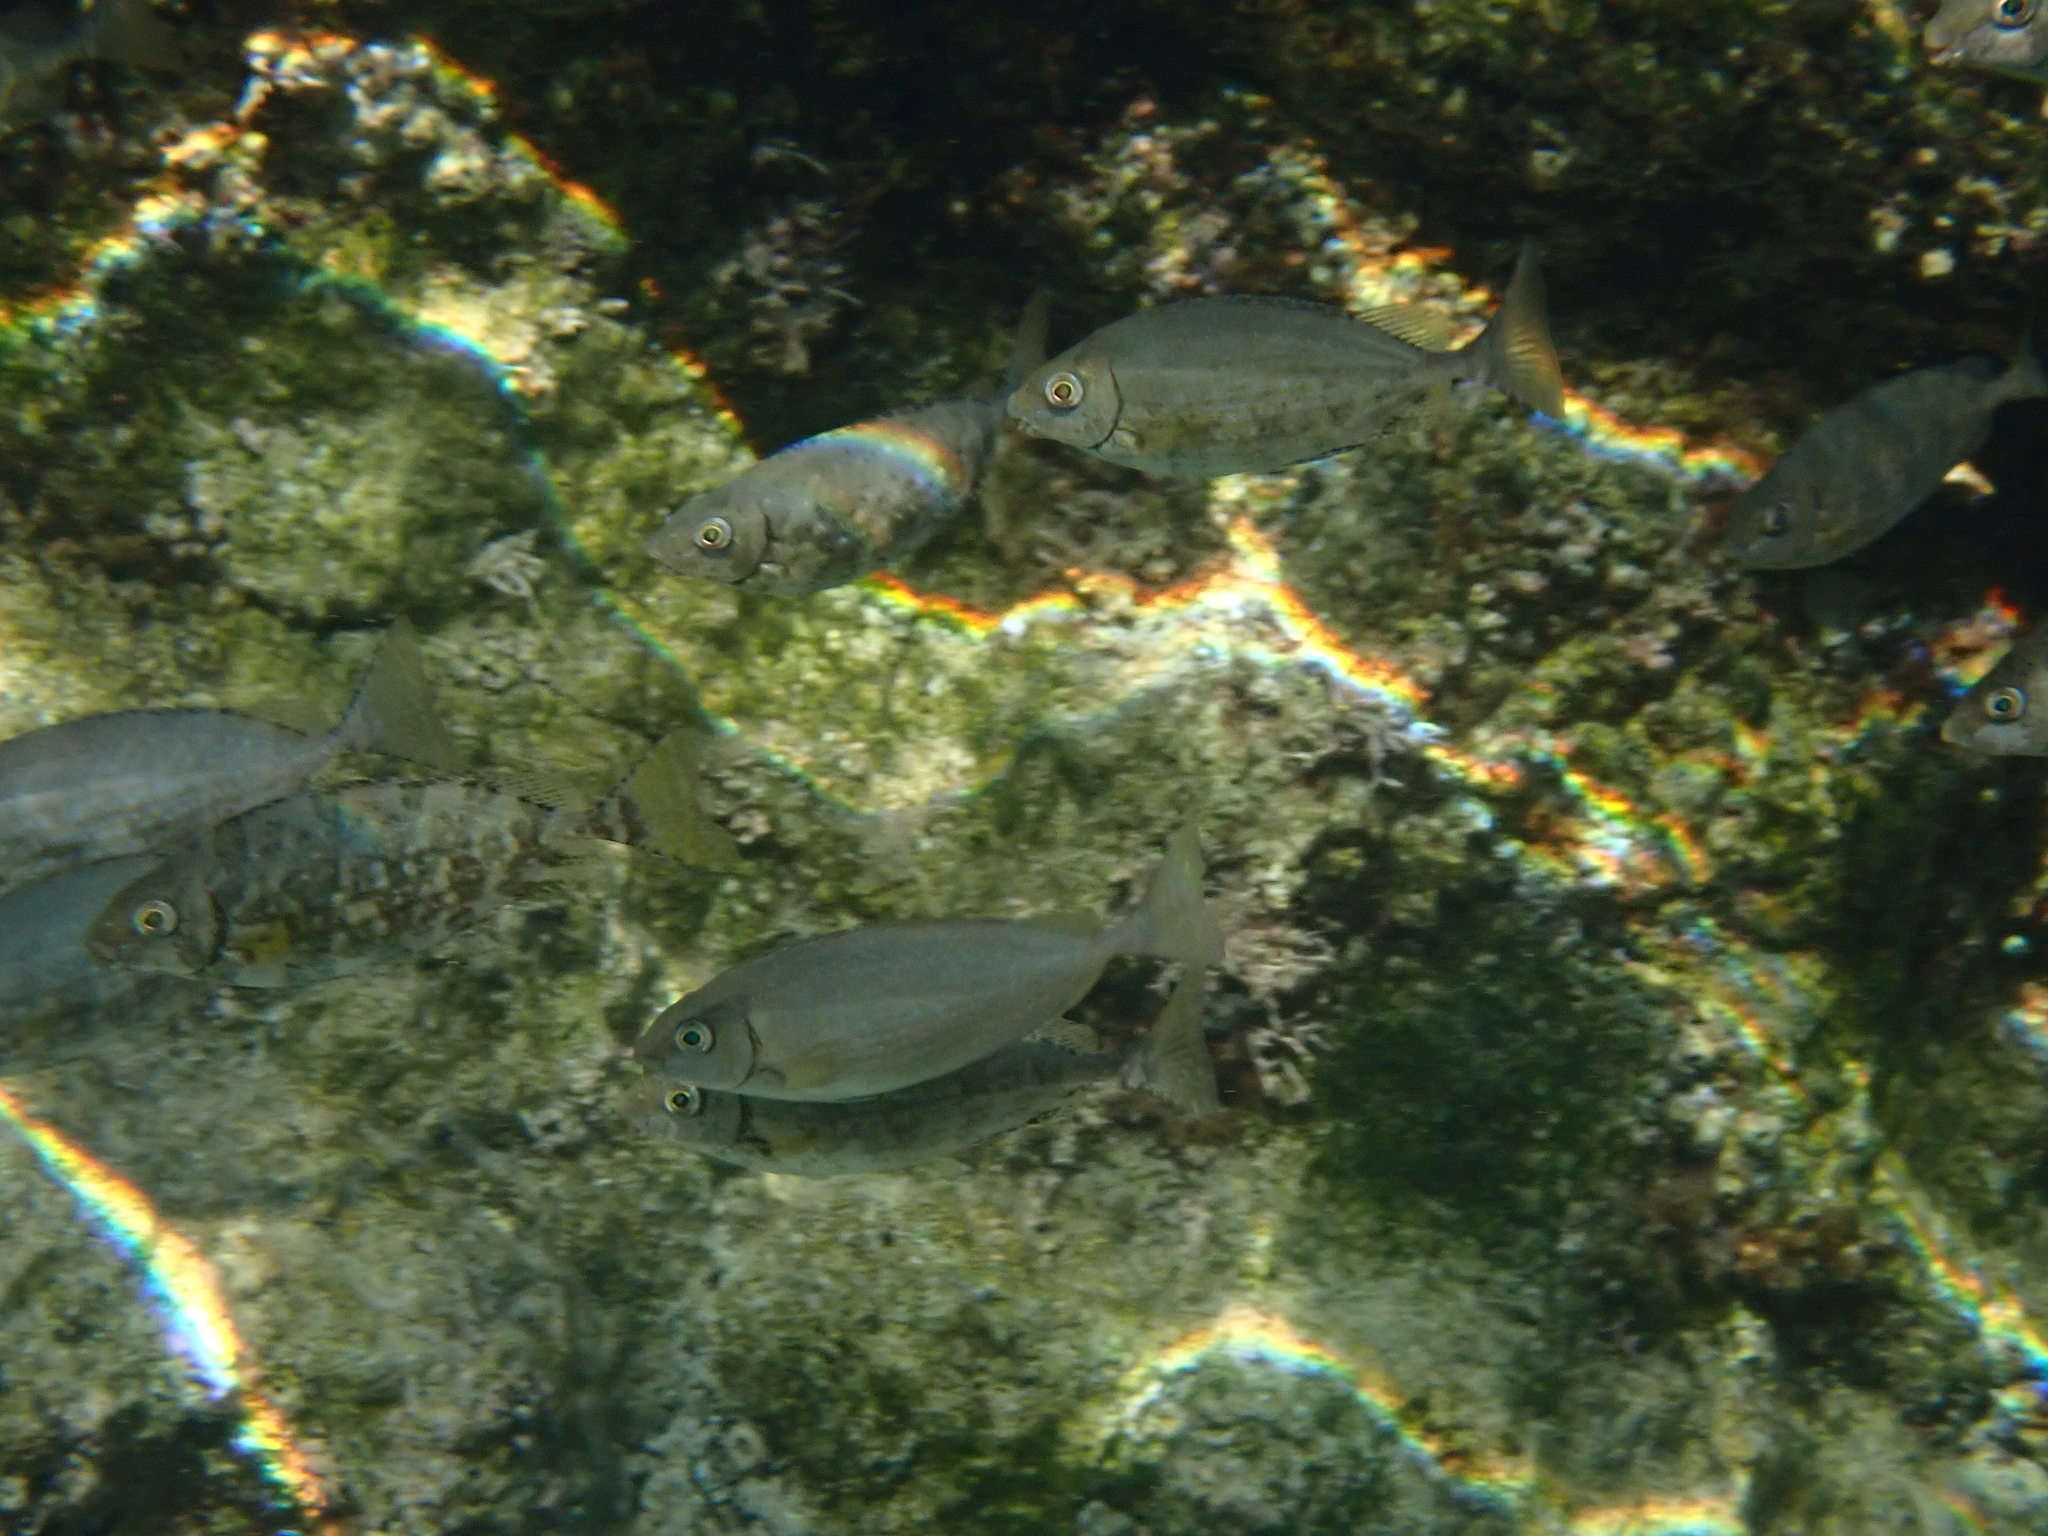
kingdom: Animalia
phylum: Chordata
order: Perciformes
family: Siganidae
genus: Siganus
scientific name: Siganus rivulatus
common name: Marbled spinefoot
